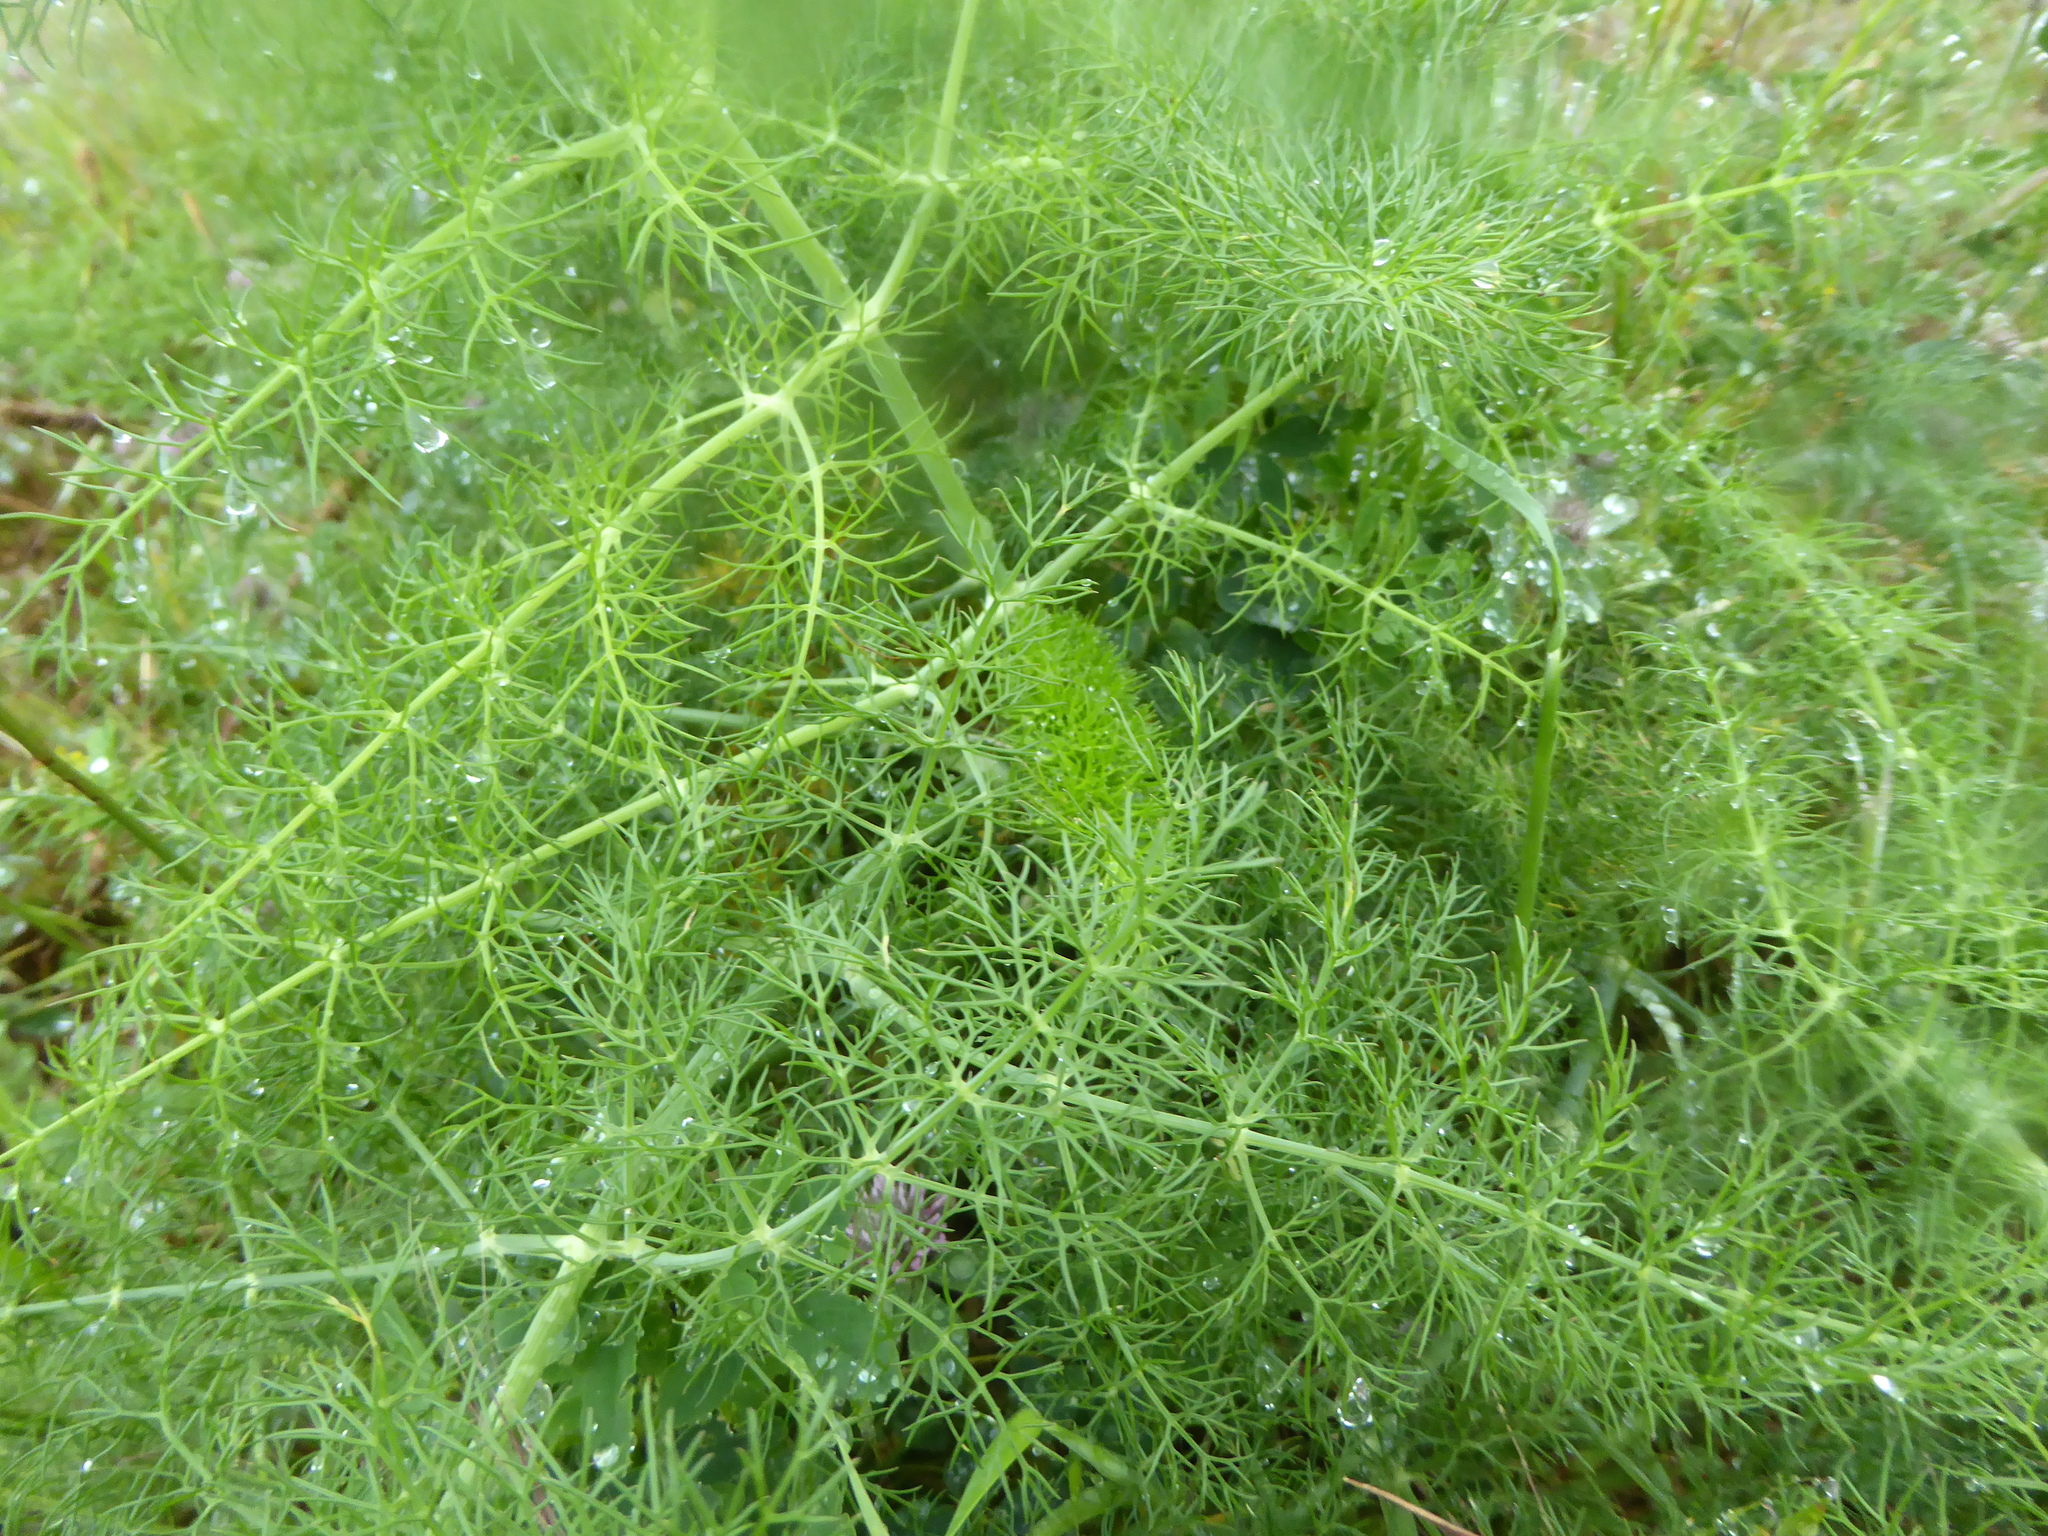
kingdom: Plantae
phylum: Tracheophyta
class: Magnoliopsida
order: Apiales
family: Apiaceae
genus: Foeniculum
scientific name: Foeniculum vulgare
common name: Fennel
